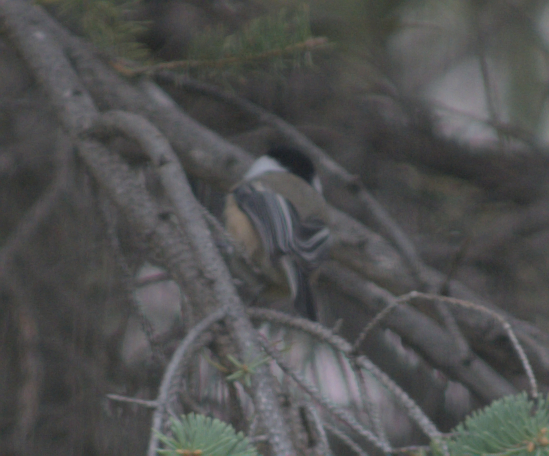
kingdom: Animalia
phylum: Chordata
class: Aves
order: Passeriformes
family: Paridae
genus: Poecile
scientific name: Poecile atricapillus
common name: Black-capped chickadee
